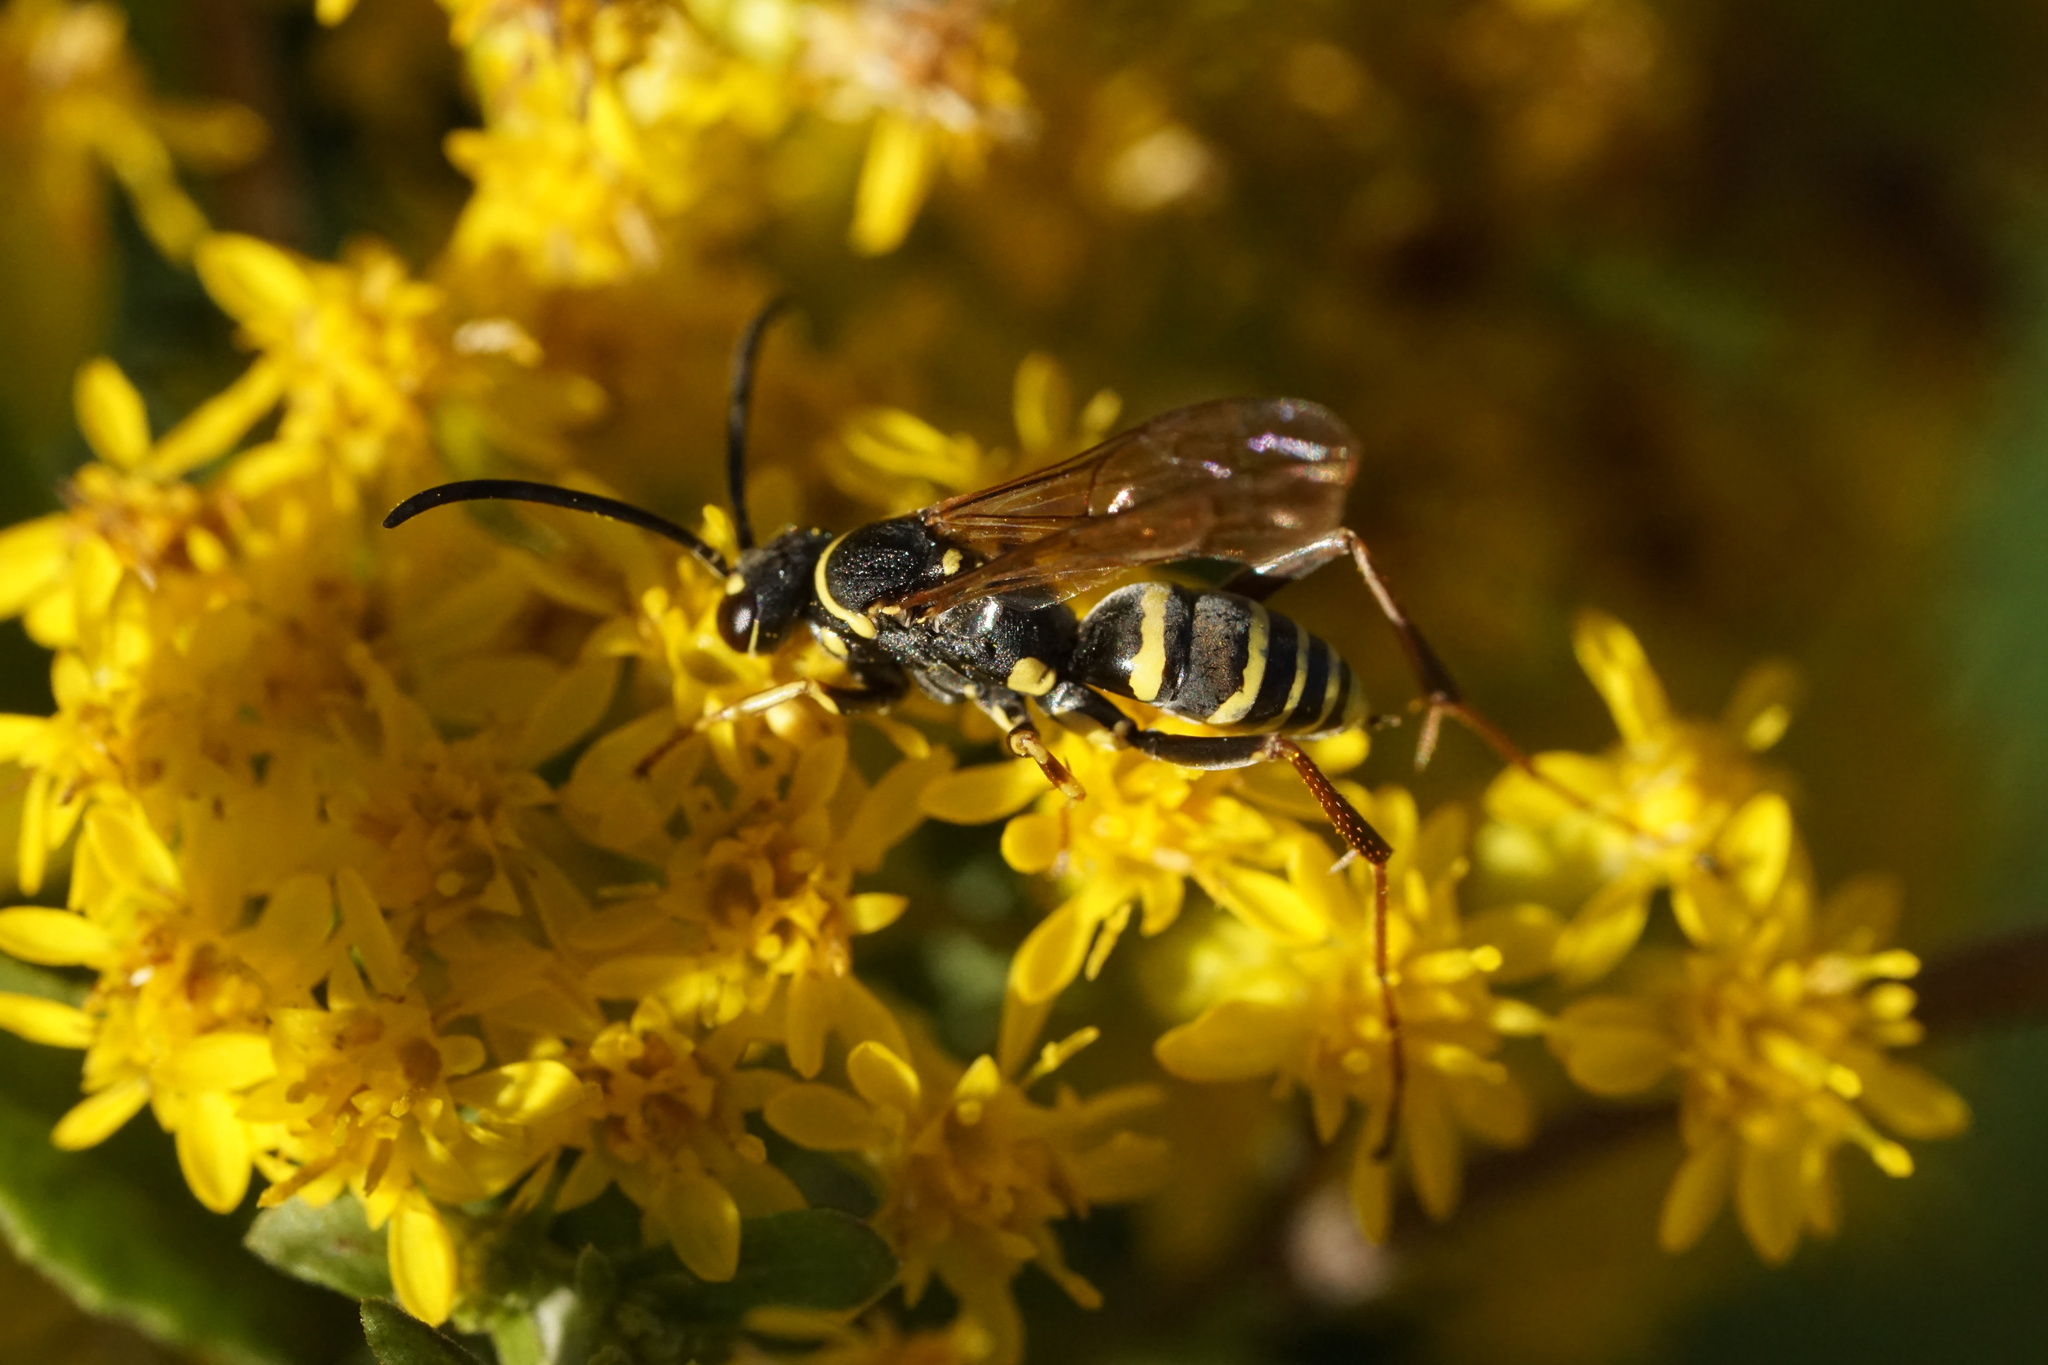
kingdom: Animalia
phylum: Arthropoda
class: Insecta
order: Hymenoptera
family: Pompilidae
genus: Ceropales
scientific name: Ceropales maculata
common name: Spider wasp
